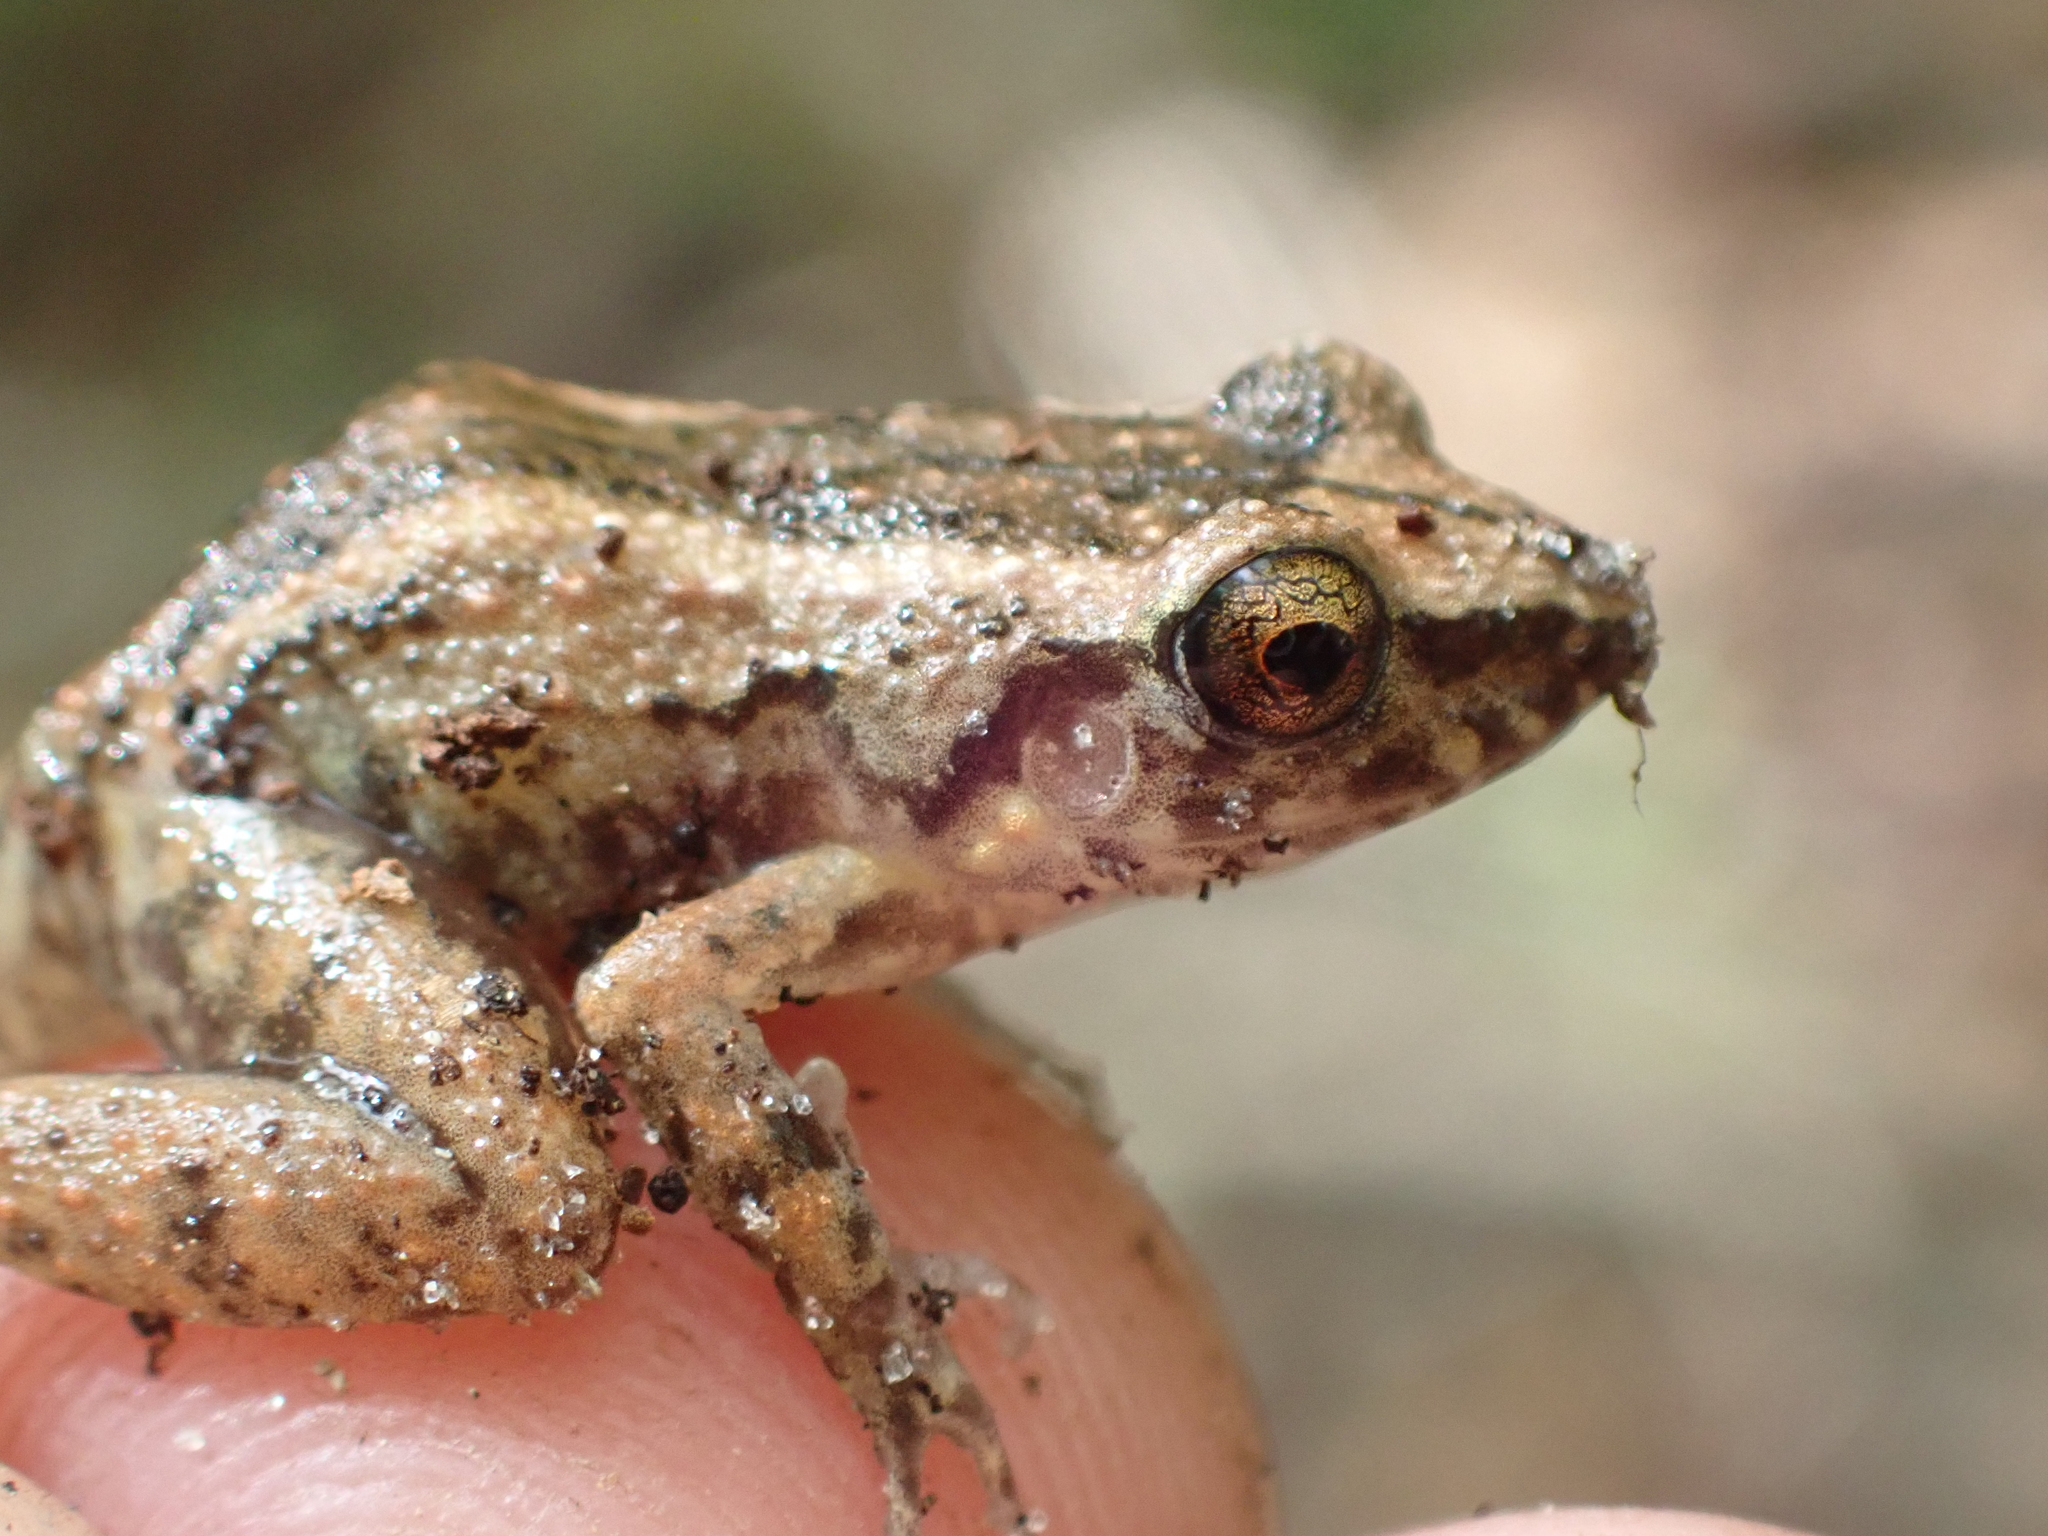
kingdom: Animalia
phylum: Chordata
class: Amphibia
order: Anura
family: Eleutherodactylidae
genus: Eleutherodactylus
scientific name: Eleutherodactylus planirostris
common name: Greenhouse frog
